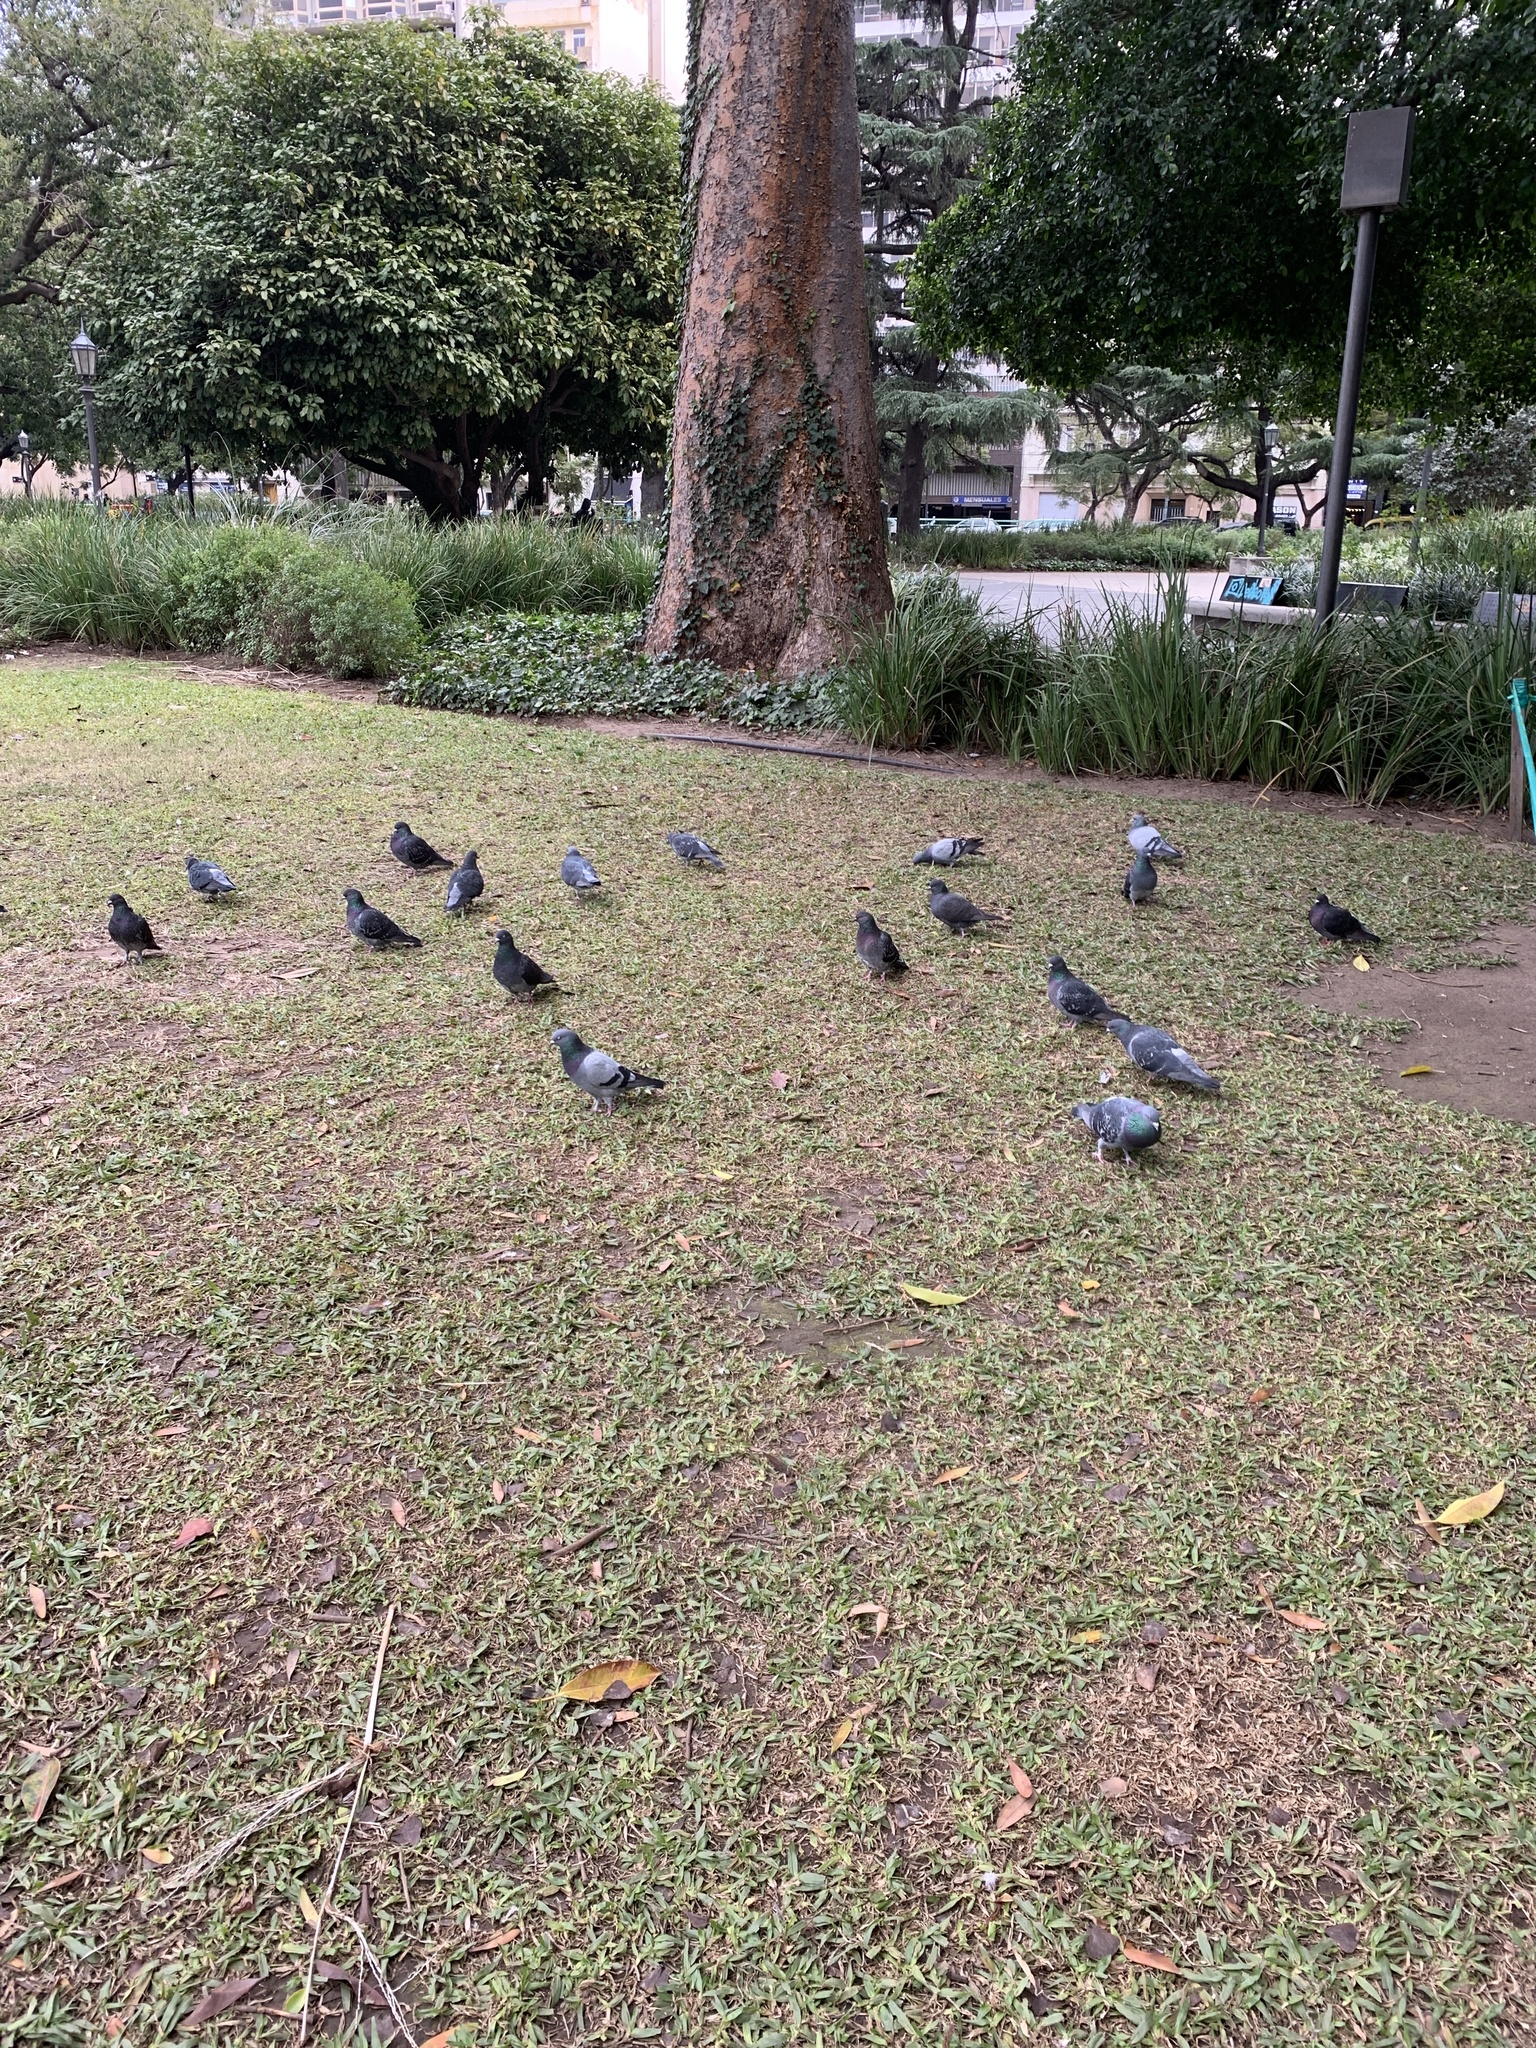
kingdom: Animalia
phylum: Chordata
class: Aves
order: Columbiformes
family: Columbidae
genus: Columba
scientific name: Columba livia
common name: Rock pigeon
